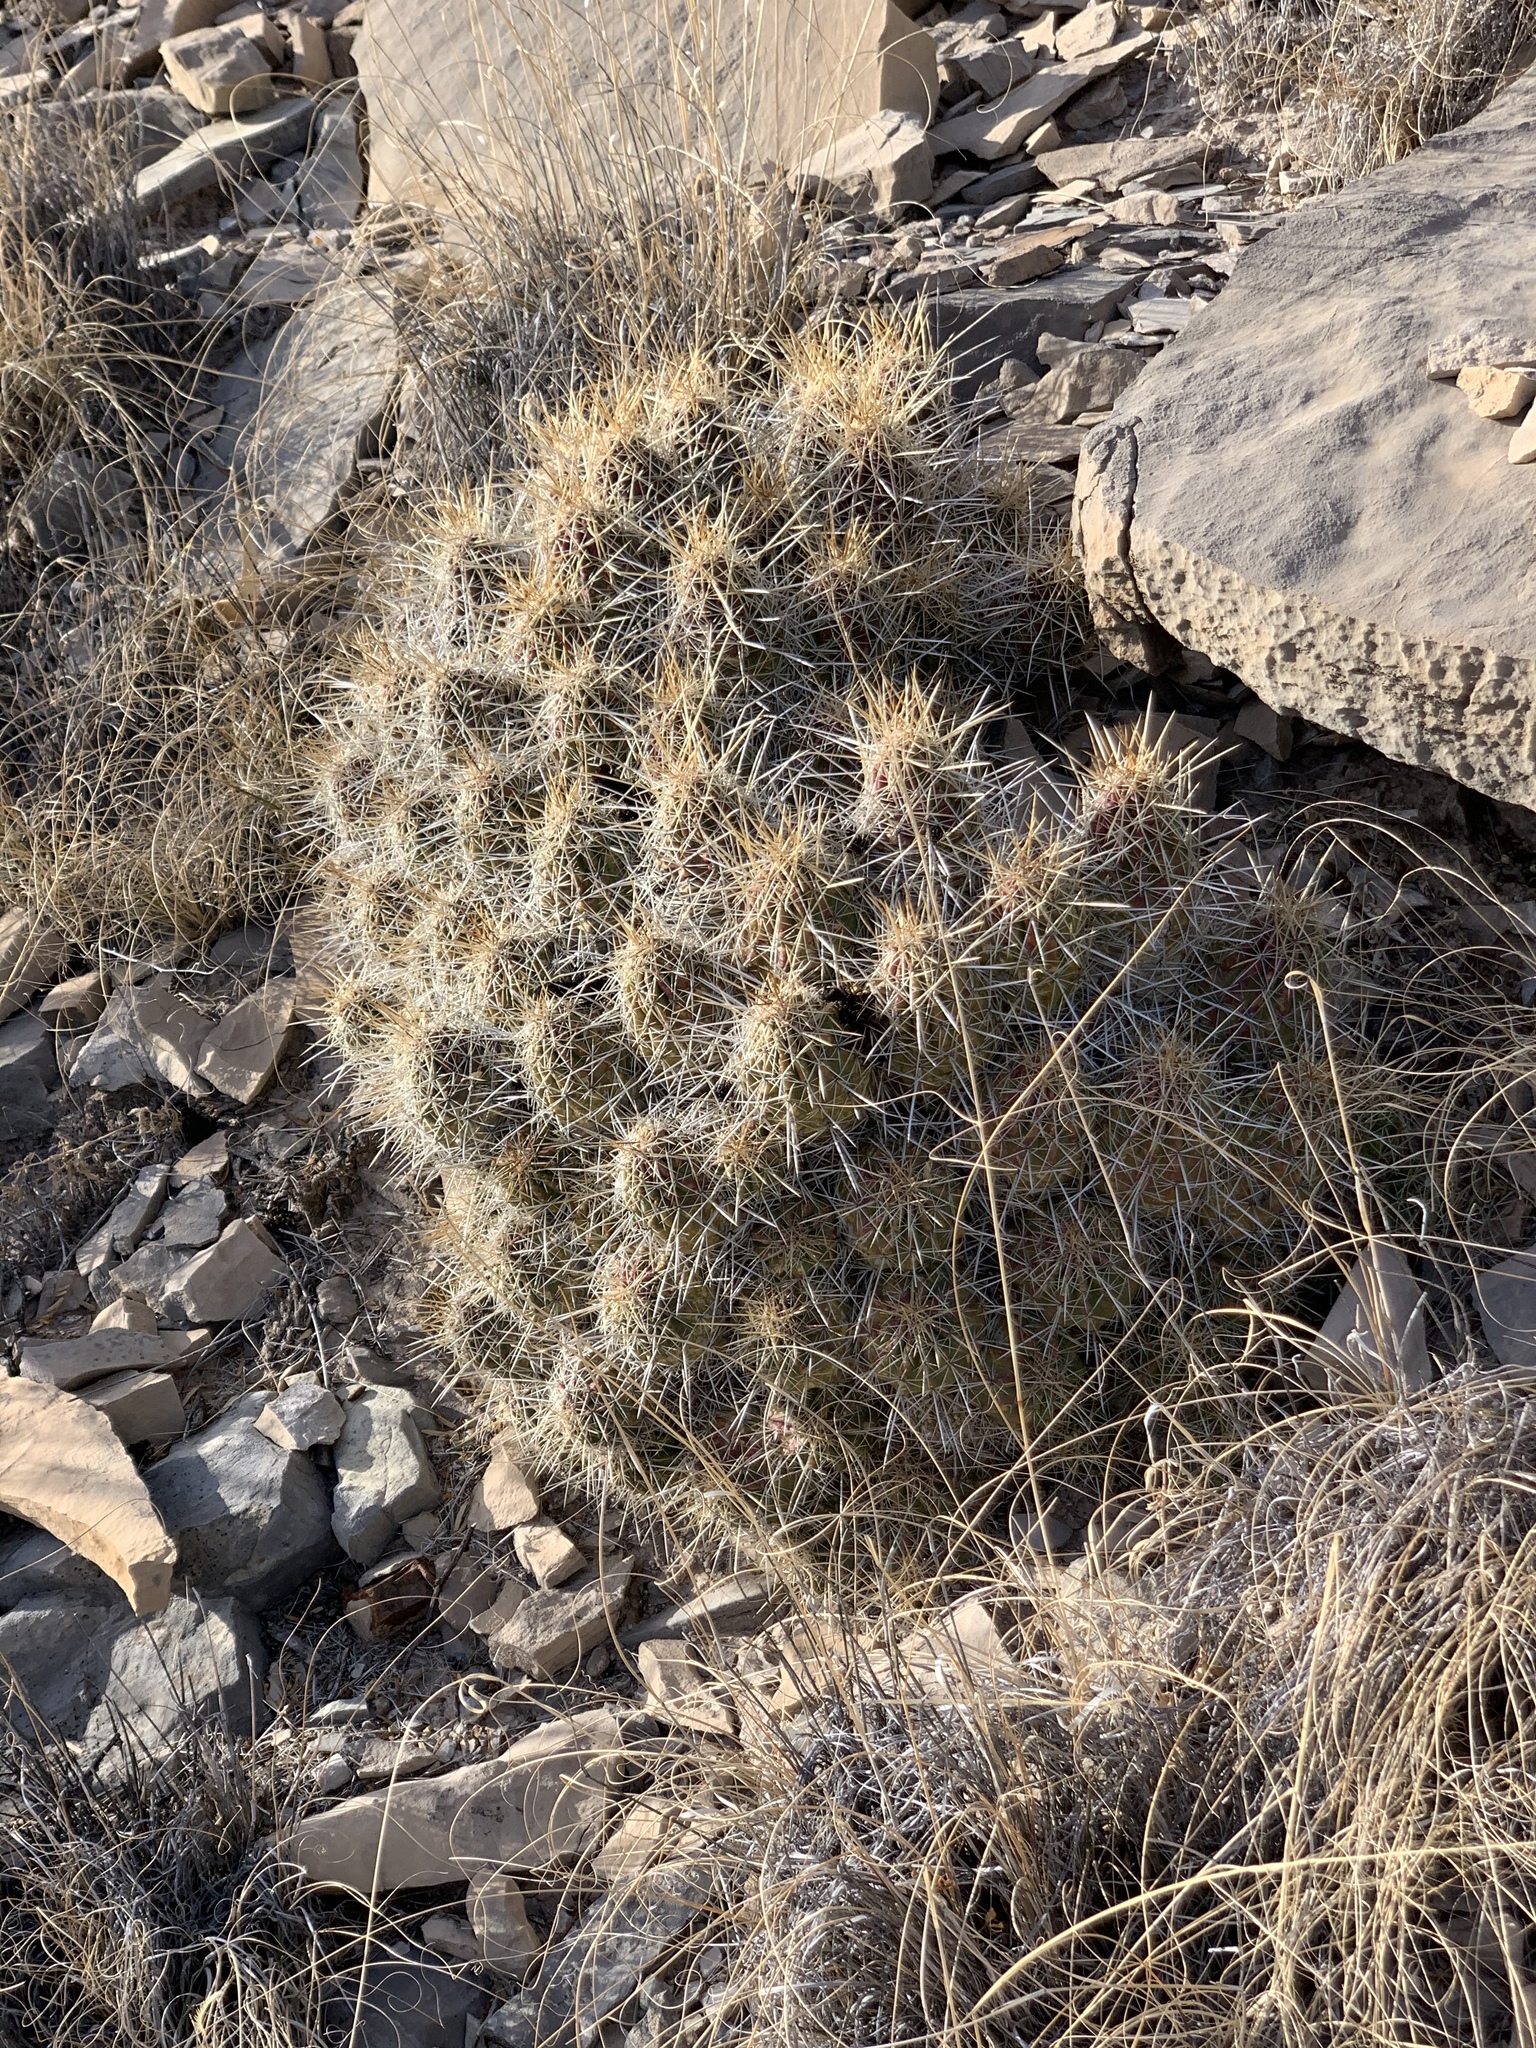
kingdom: Plantae
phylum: Tracheophyta
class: Magnoliopsida
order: Caryophyllales
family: Cactaceae
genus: Echinocereus
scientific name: Echinocereus stramineus
